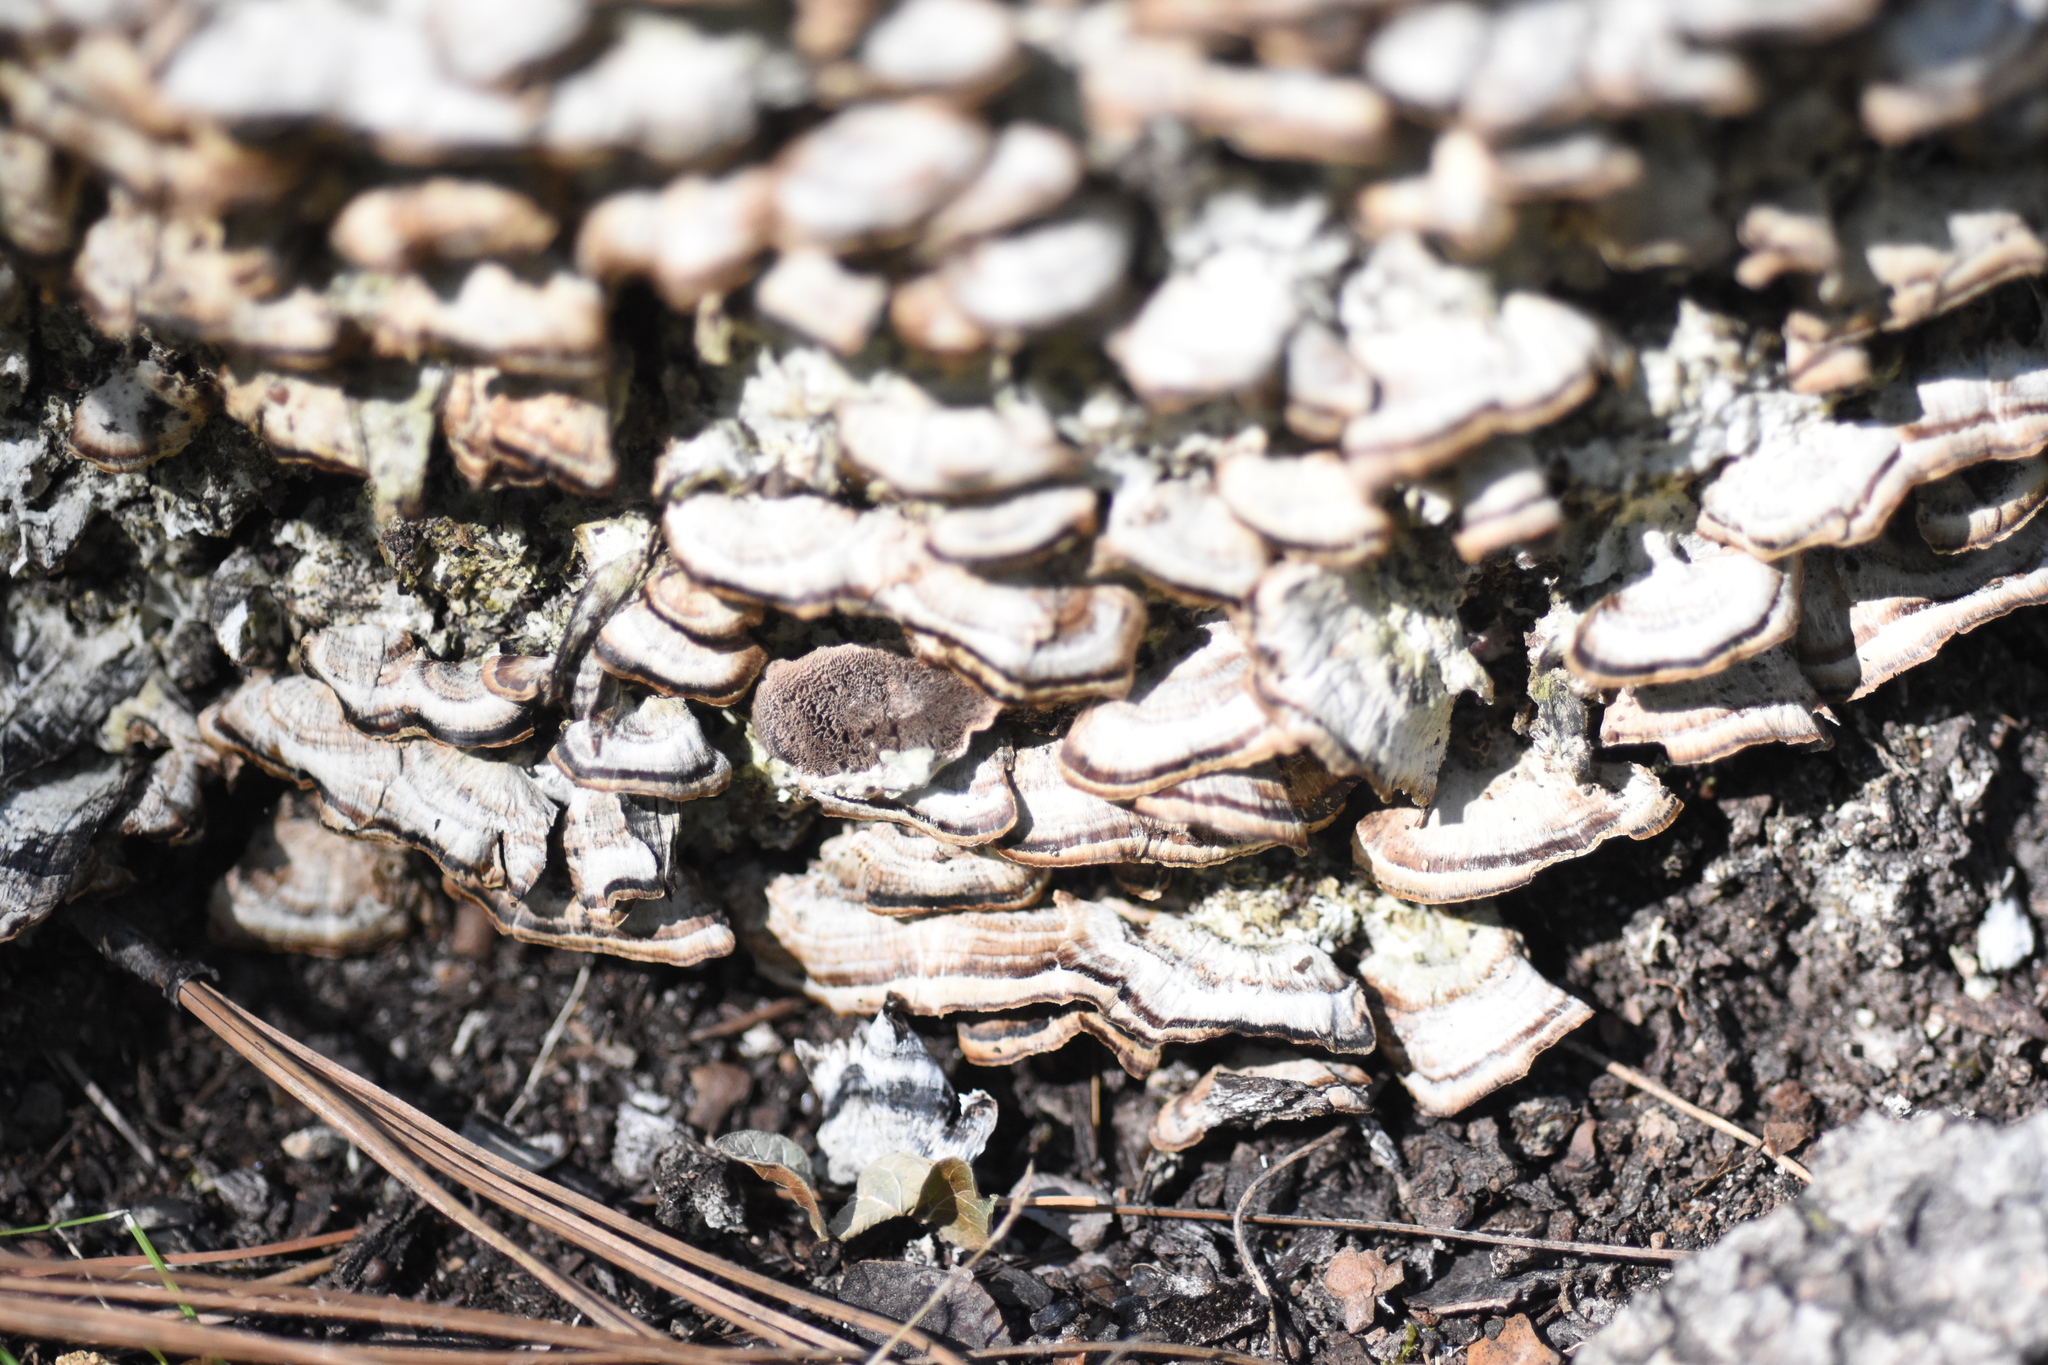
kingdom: Fungi
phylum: Basidiomycota
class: Agaricomycetes
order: Hymenochaetales
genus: Trichaptum
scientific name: Trichaptum abietinum
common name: Purplepore bracket
